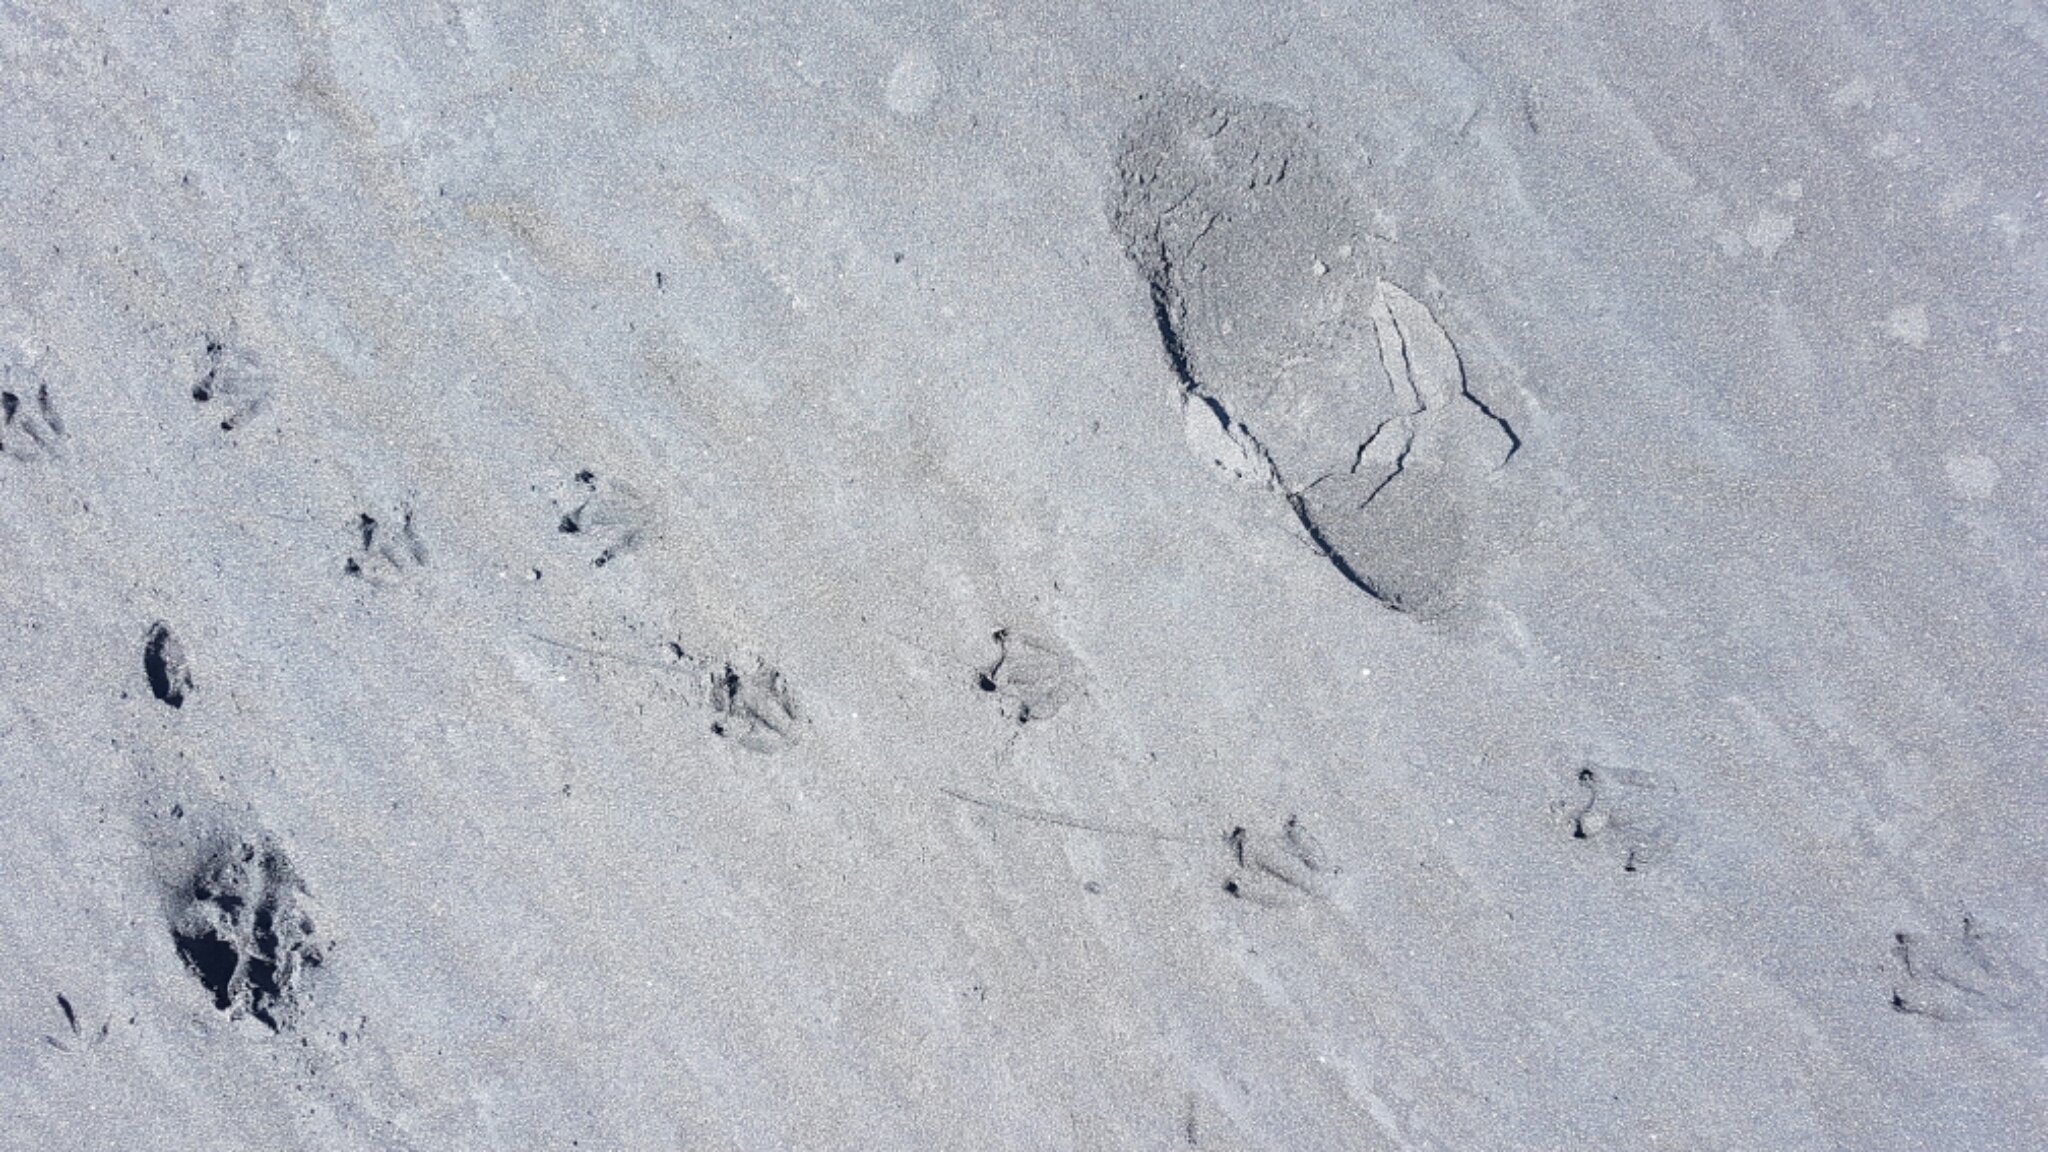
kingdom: Animalia
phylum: Chordata
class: Aves
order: Sphenisciformes
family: Spheniscidae
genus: Eudyptula
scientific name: Eudyptula minor
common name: Little penguin
